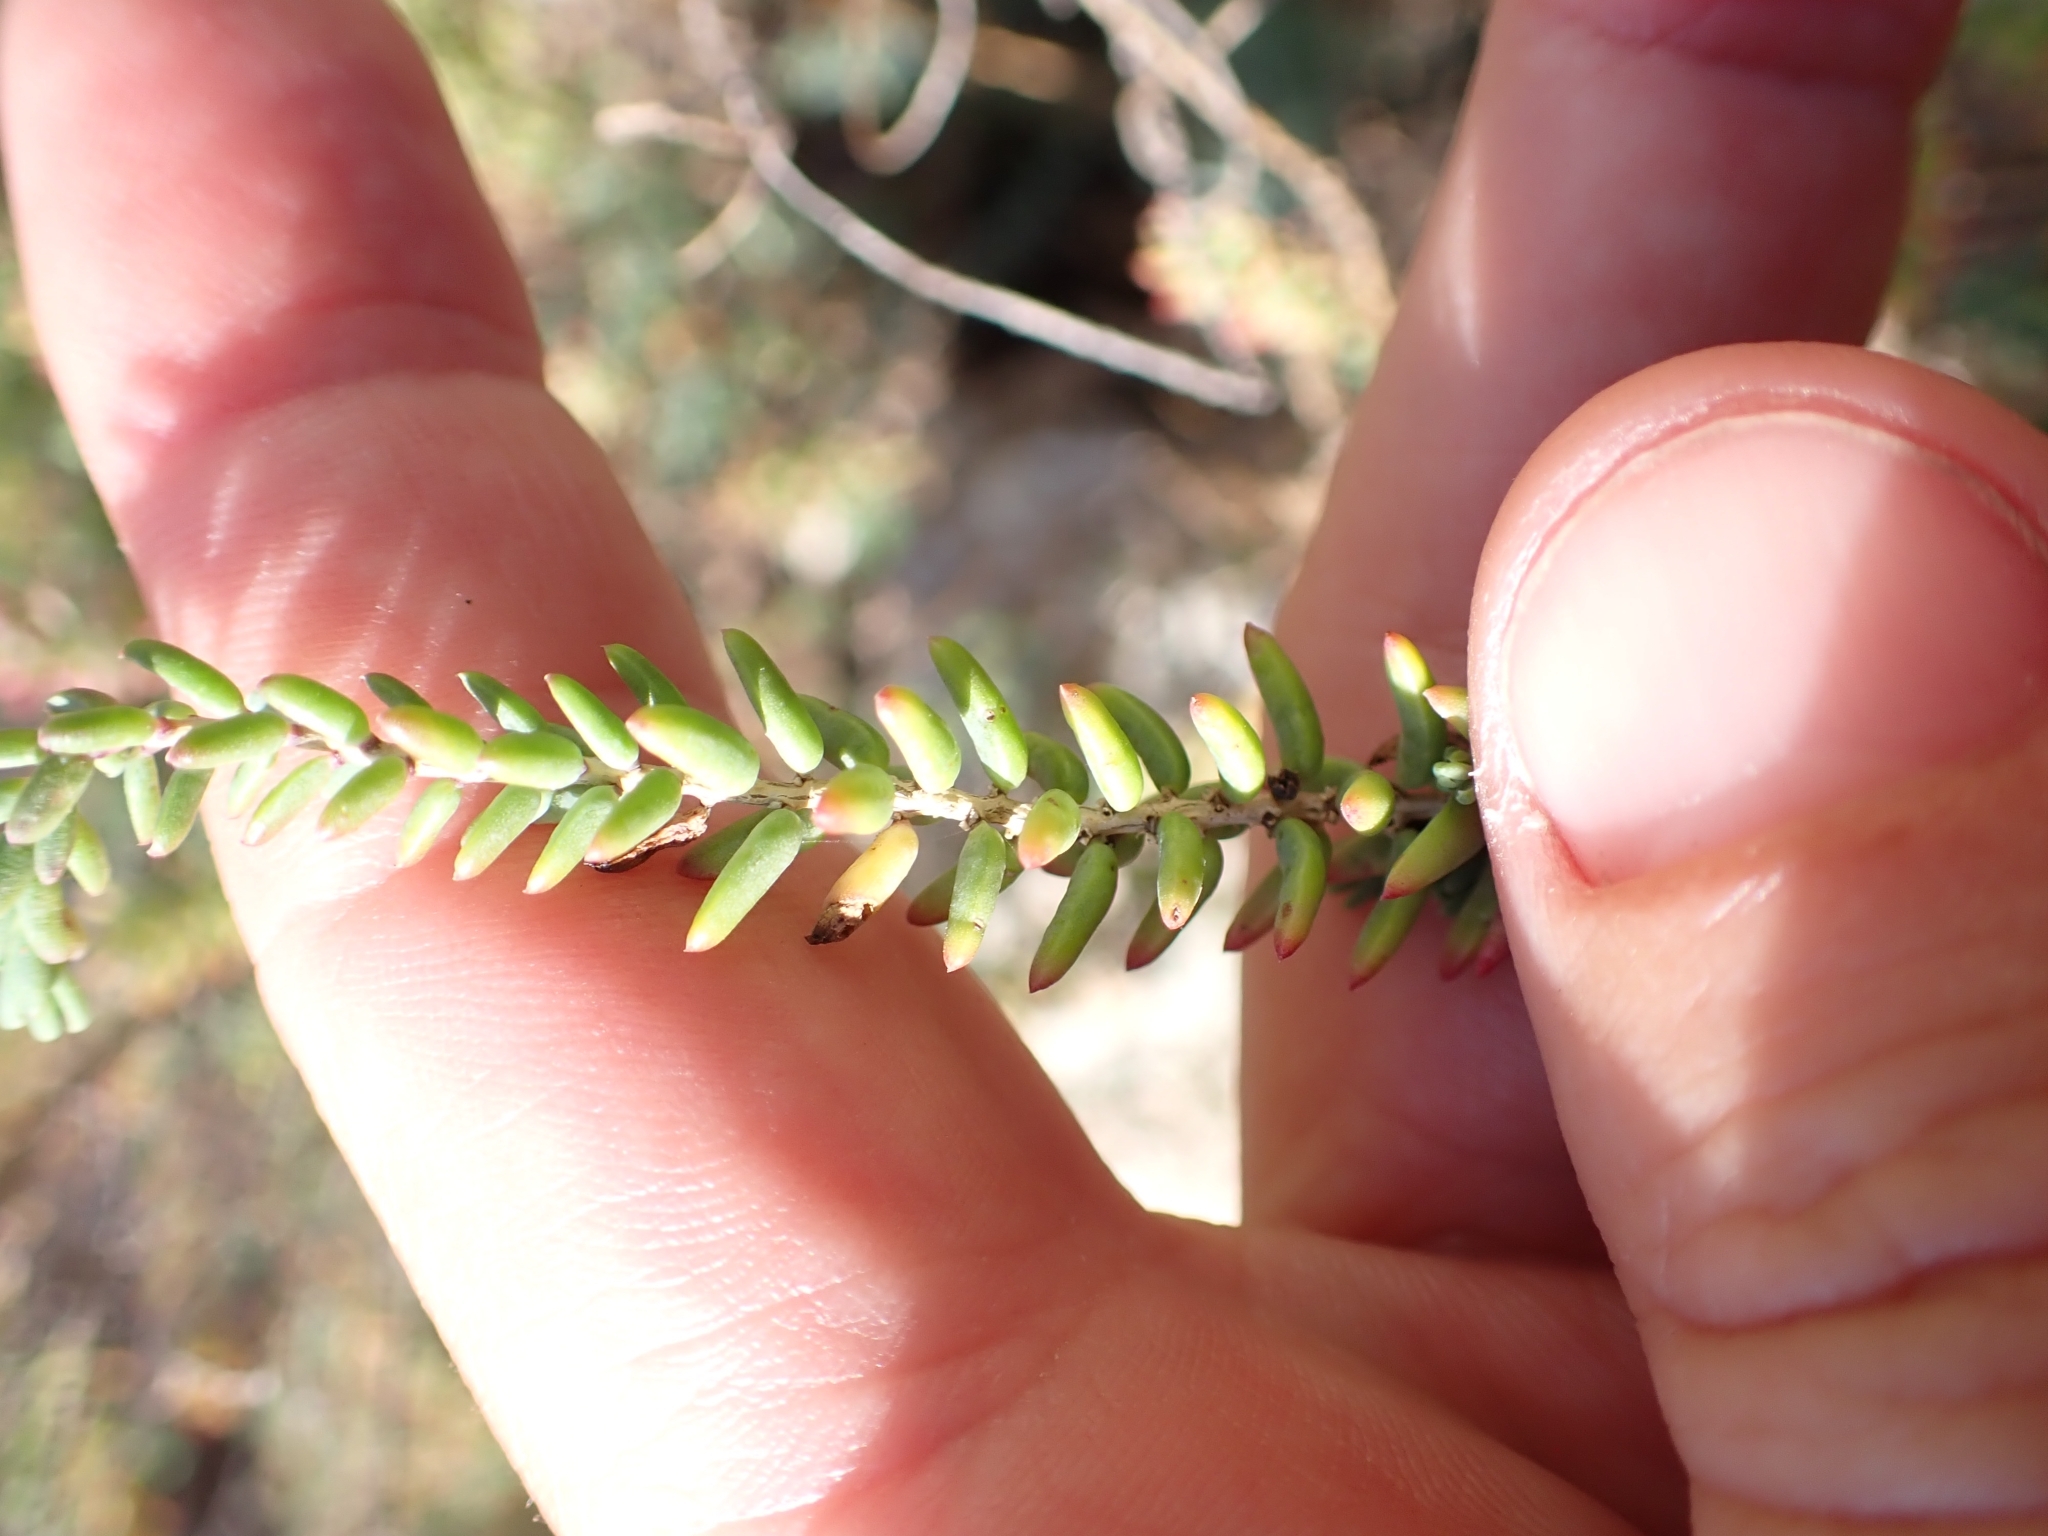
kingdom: Plantae
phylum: Tracheophyta
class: Magnoliopsida
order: Caryophyllales
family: Amaranthaceae
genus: Suaeda
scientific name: Suaeda vera
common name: Shrubby sea-blite
